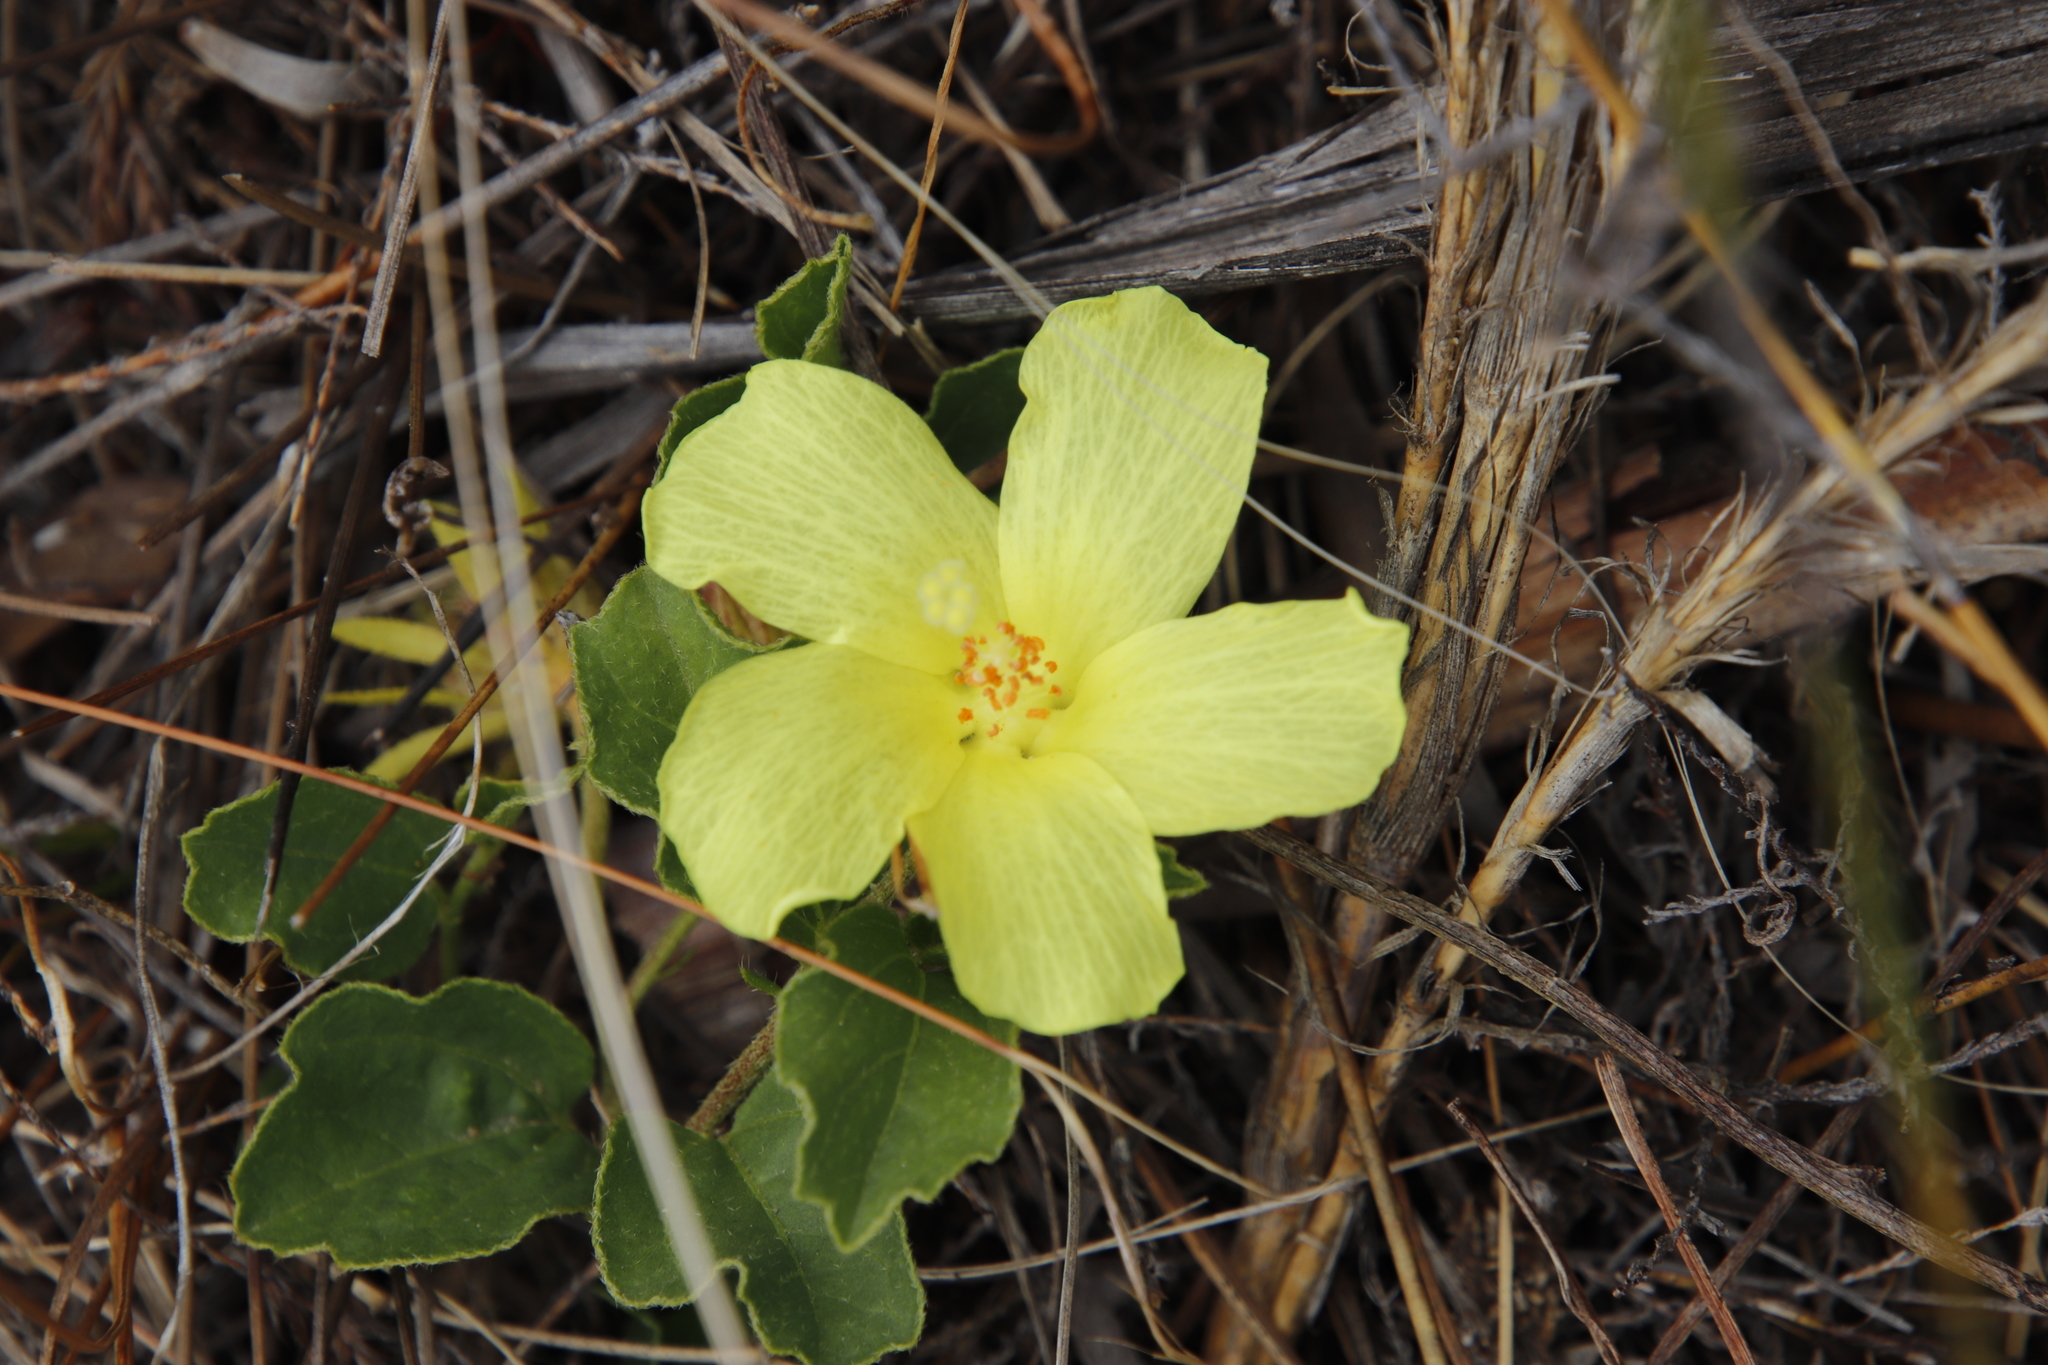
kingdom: Plantae
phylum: Tracheophyta
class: Magnoliopsida
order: Malvales
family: Malvaceae
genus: Hibiscus
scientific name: Hibiscus aethiopicus
